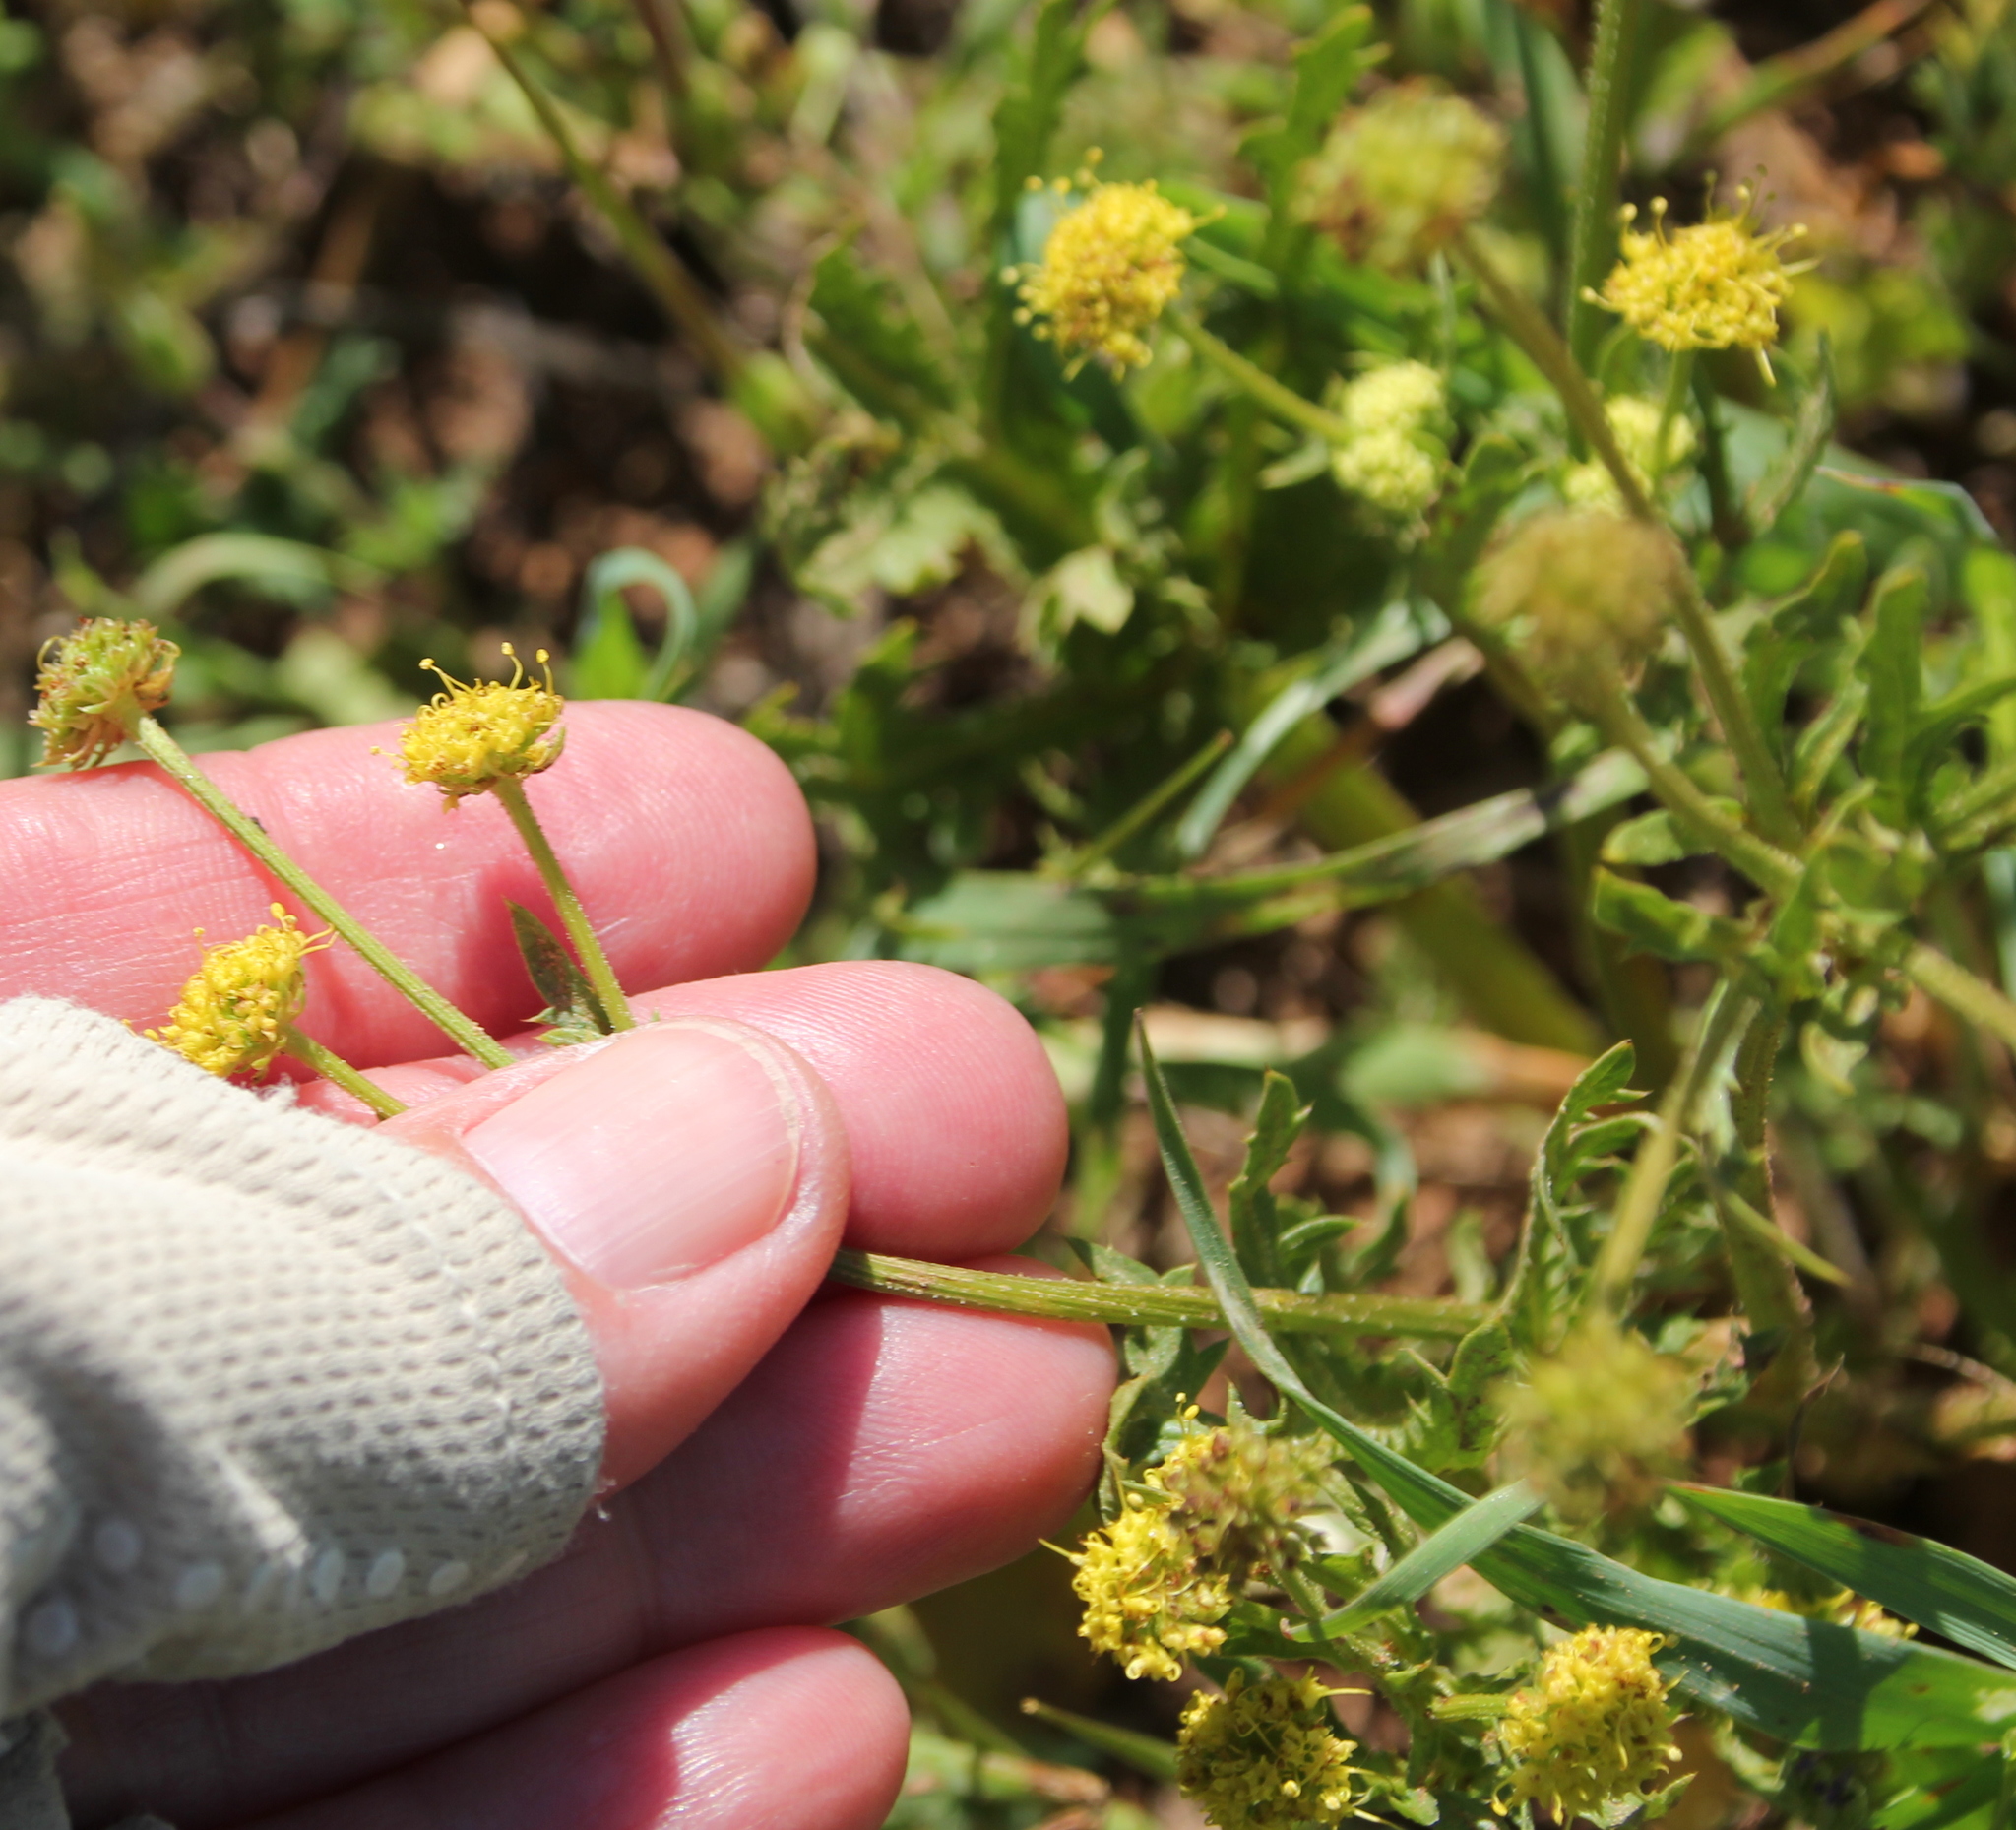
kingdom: Plantae
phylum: Tracheophyta
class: Magnoliopsida
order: Apiales
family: Apiaceae
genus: Sanicula
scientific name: Sanicula arguta
